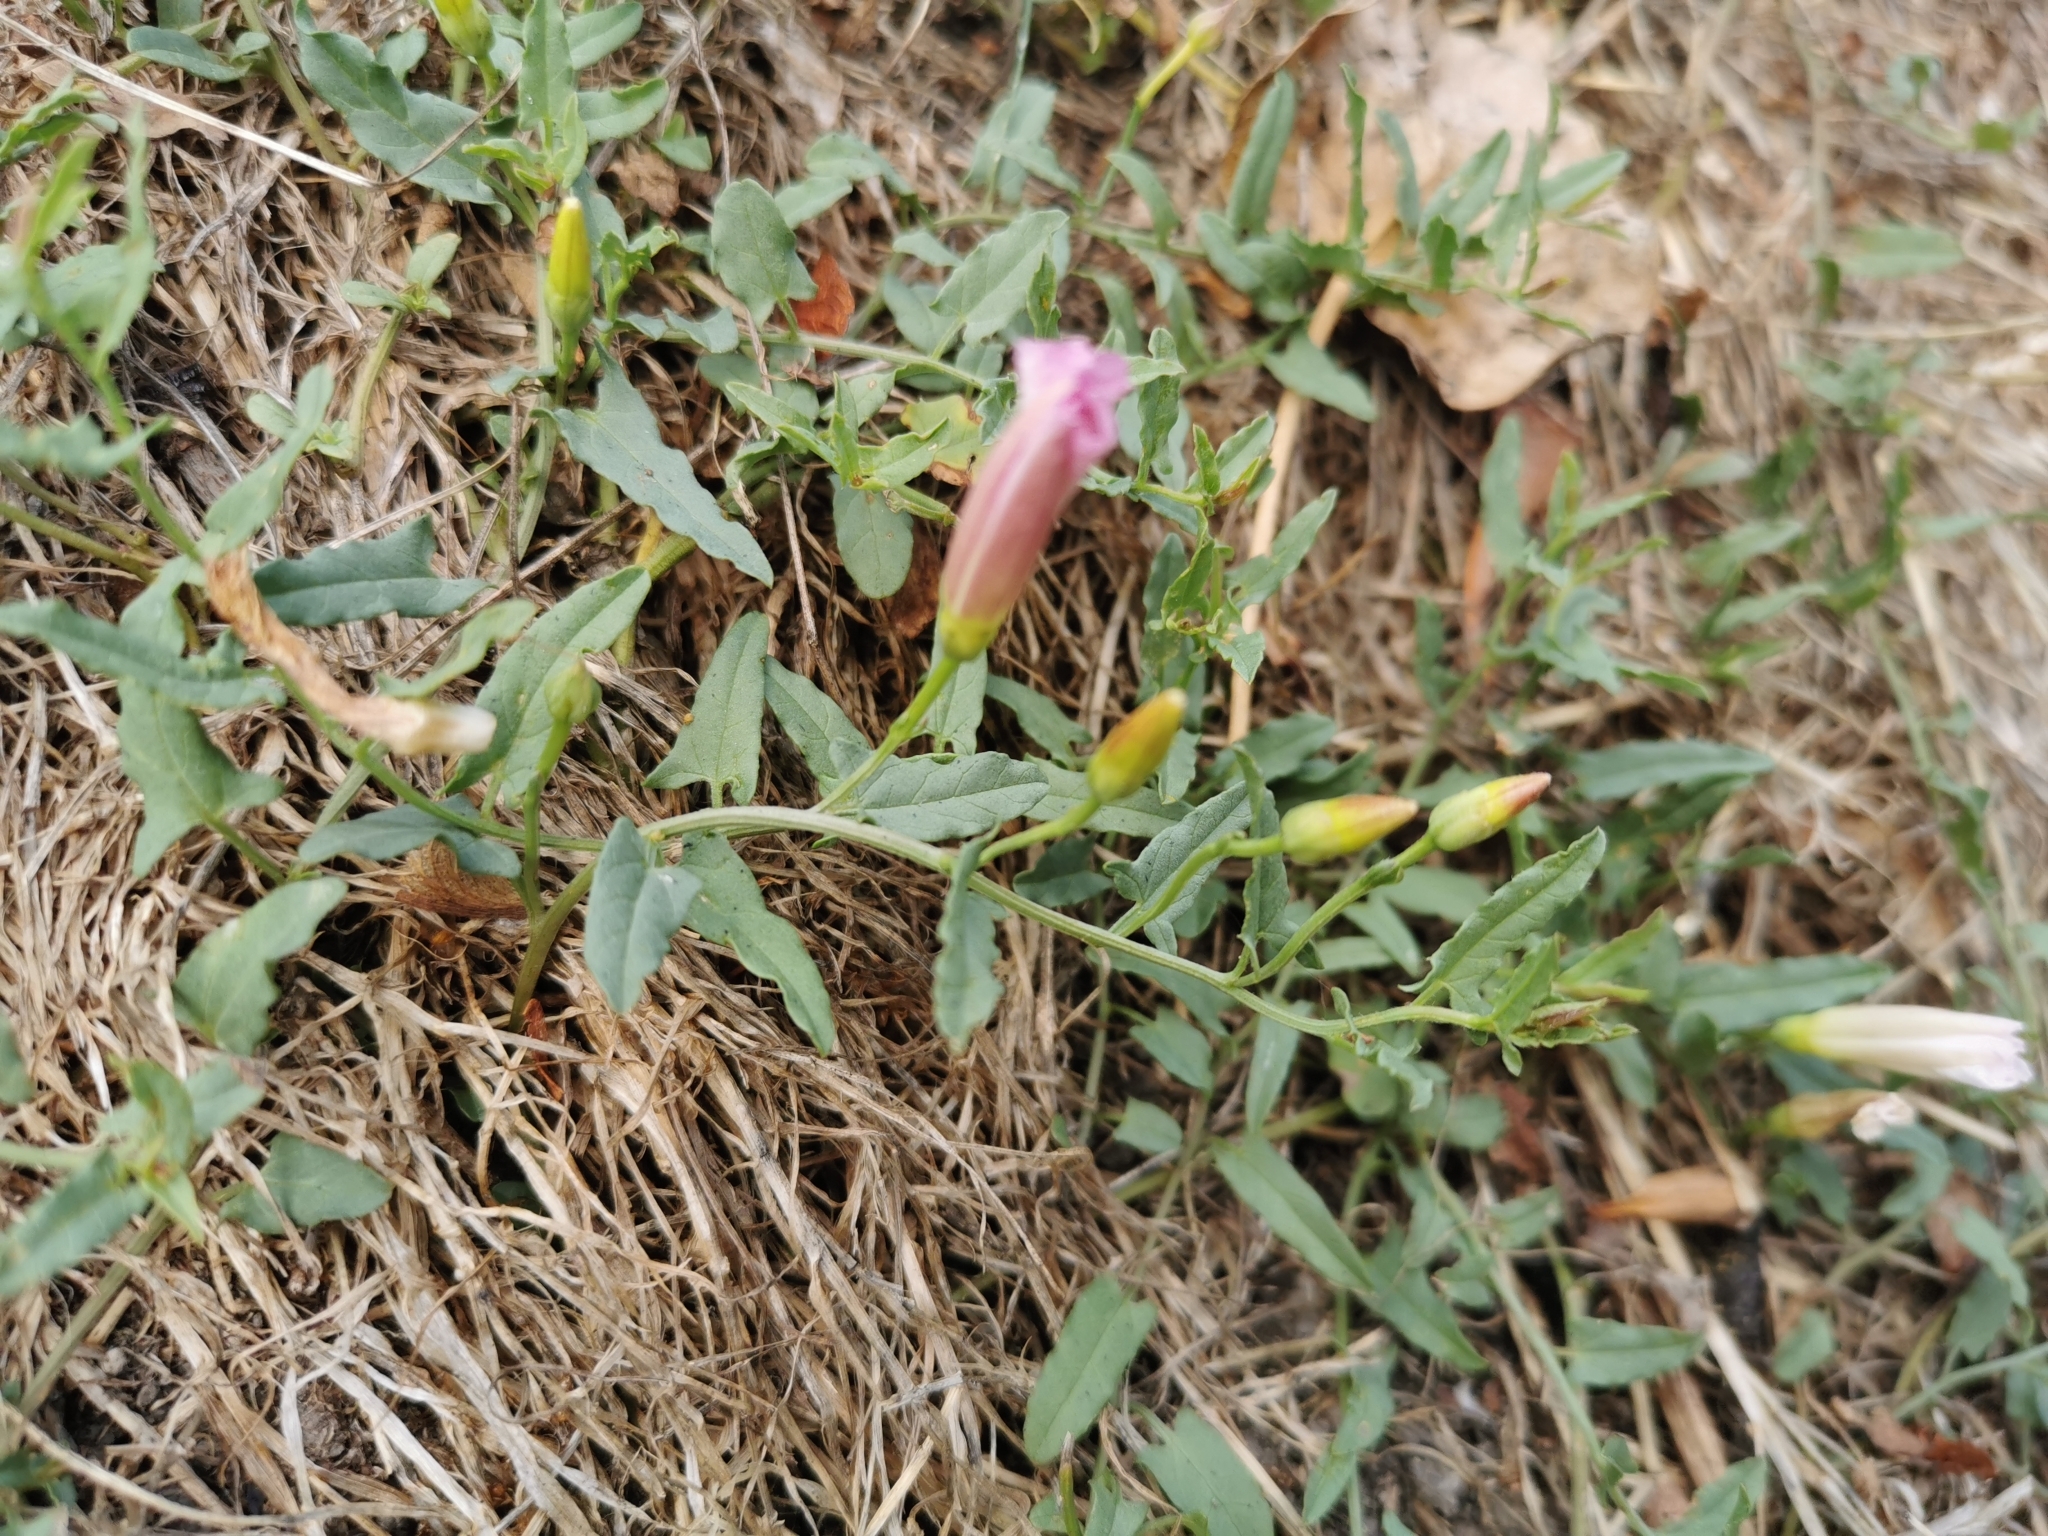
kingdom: Plantae
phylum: Tracheophyta
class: Magnoliopsida
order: Solanales
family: Convolvulaceae
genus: Convolvulus
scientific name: Convolvulus arvensis
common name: Field bindweed
